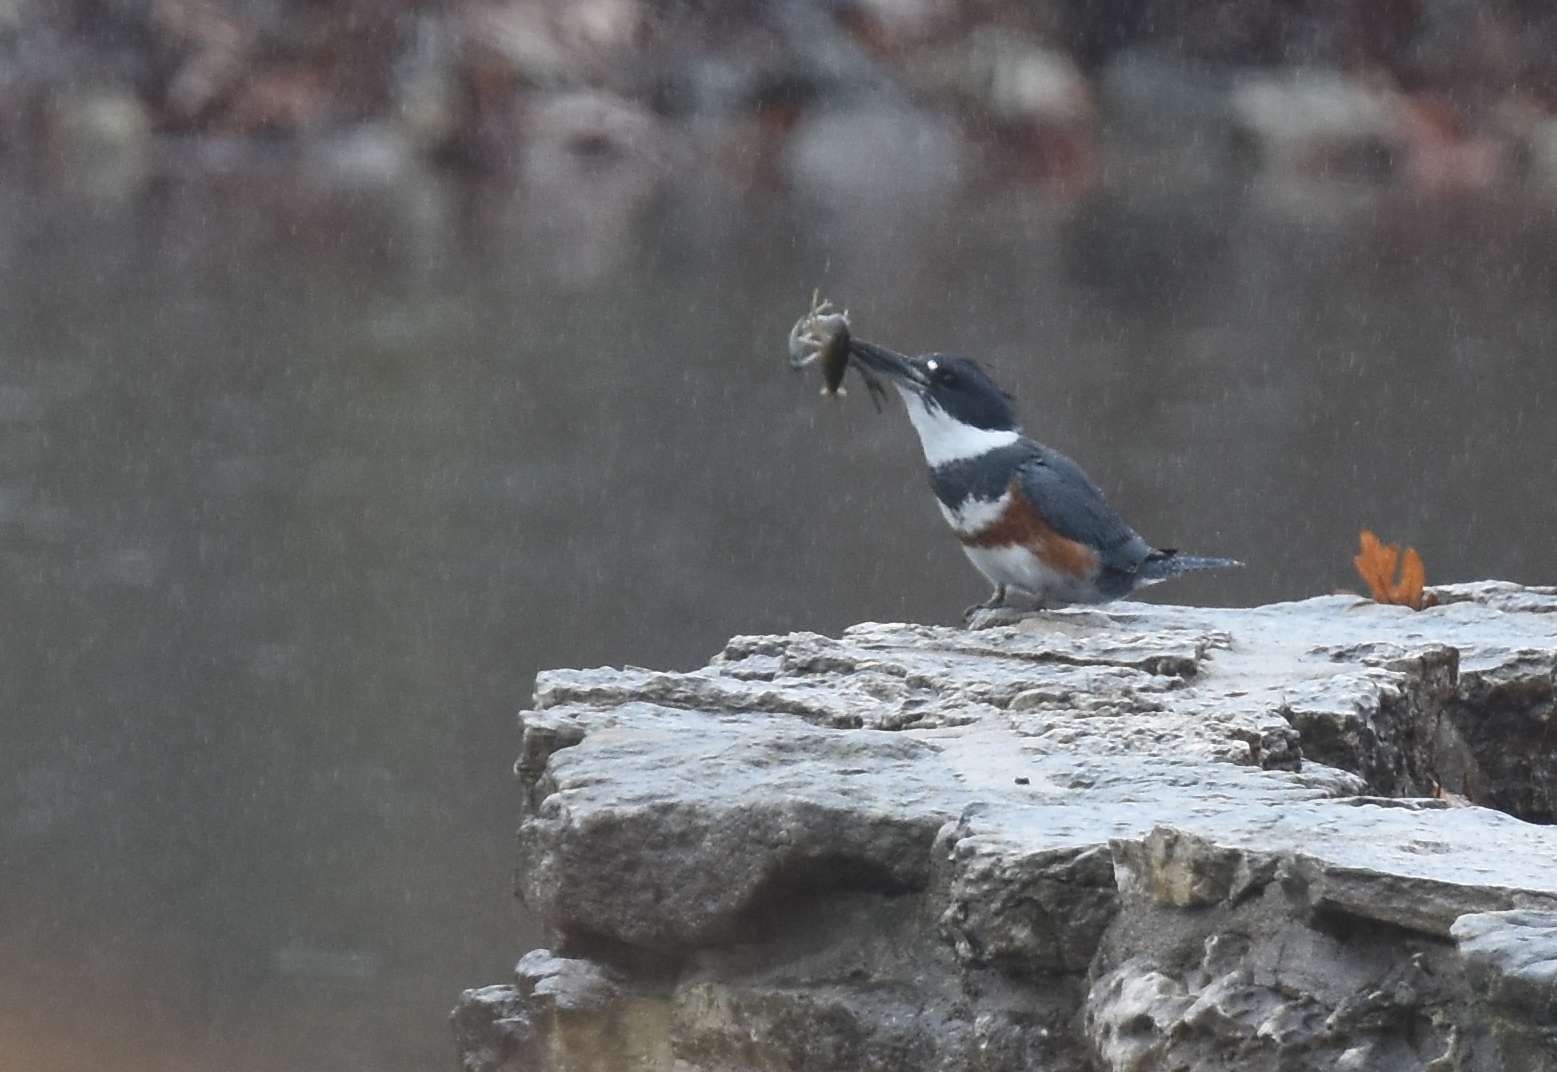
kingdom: Animalia
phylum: Chordata
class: Aves
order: Coraciiformes
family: Alcedinidae
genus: Megaceryle
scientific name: Megaceryle alcyon
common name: Belted kingfisher
